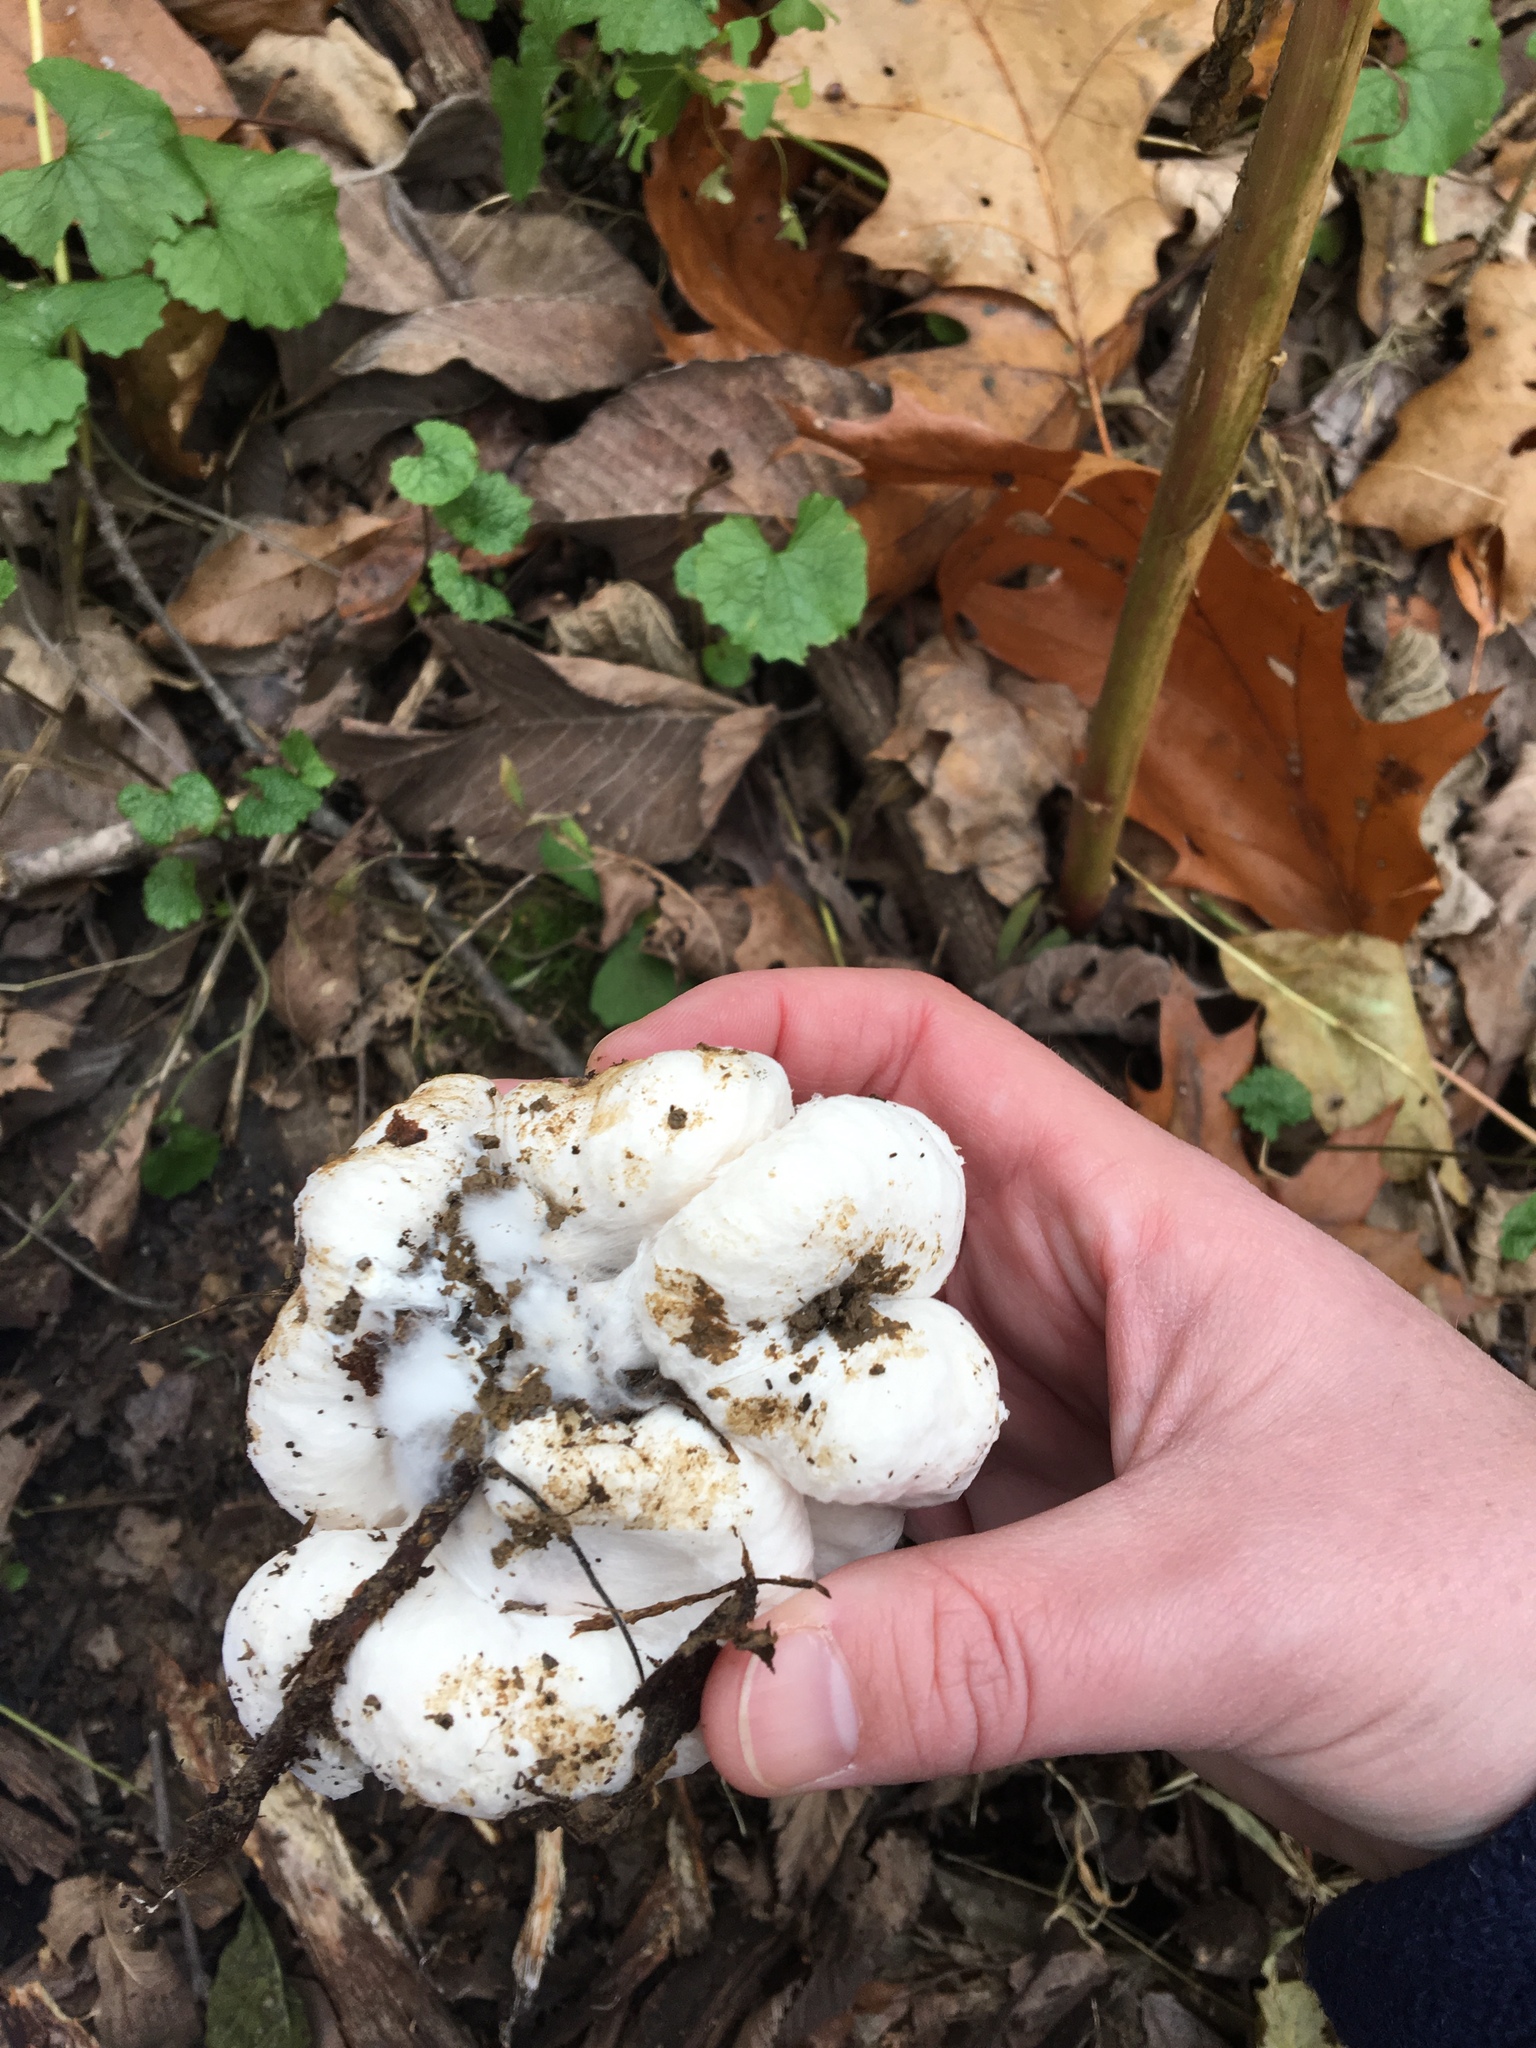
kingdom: Fungi
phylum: Basidiomycota
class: Agaricomycetes
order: Agaricales
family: Entolomataceae
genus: Entoloma
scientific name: Entoloma abortivum
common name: Aborted entoloma
